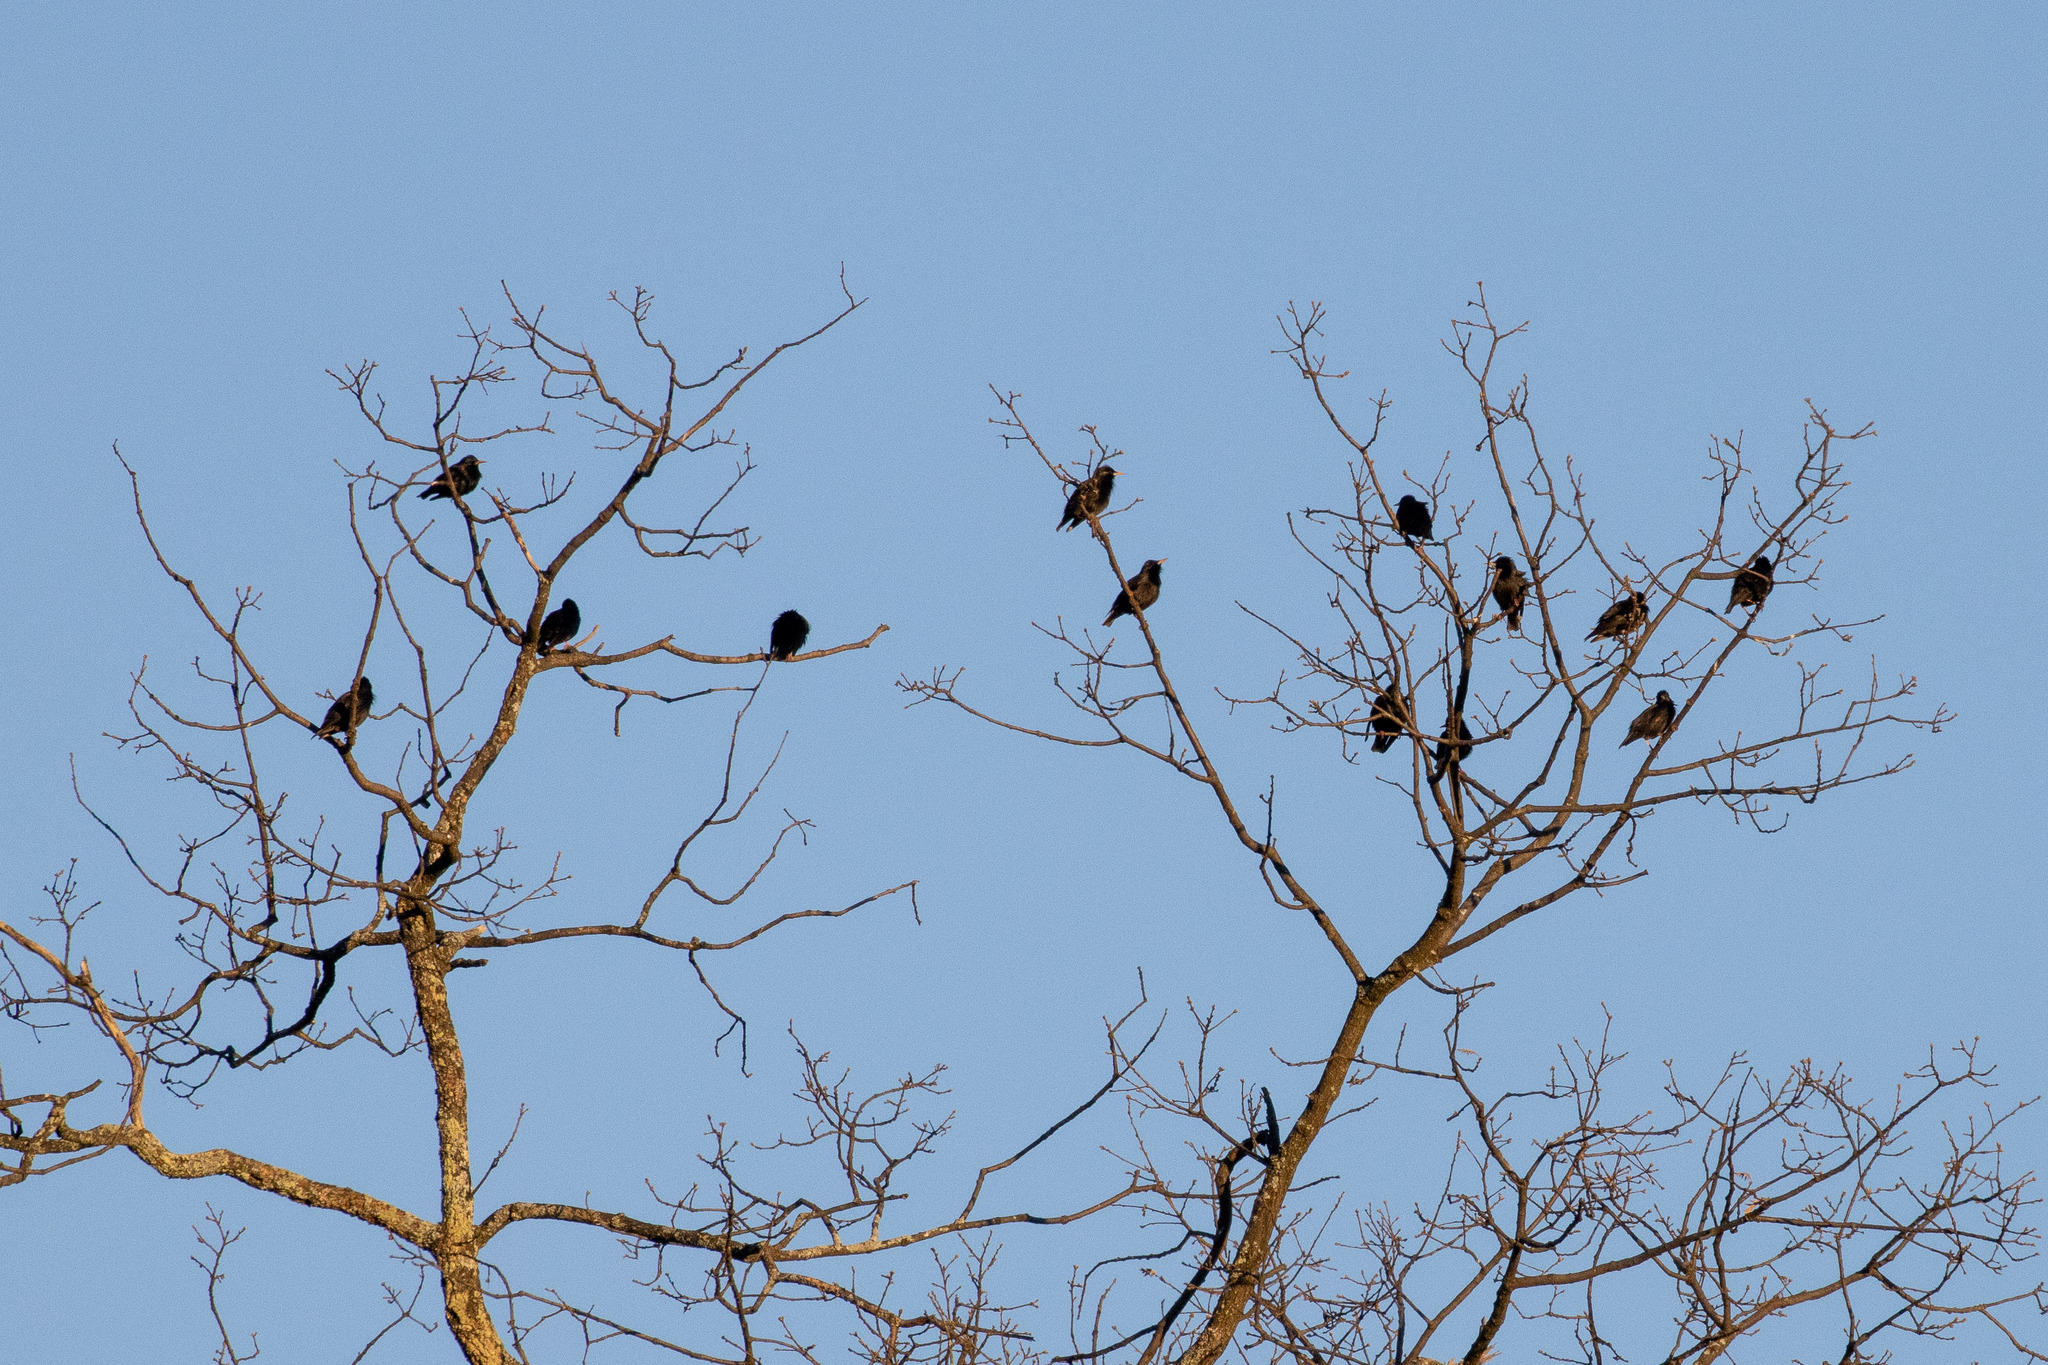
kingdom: Animalia
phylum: Chordata
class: Aves
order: Passeriformes
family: Sturnidae
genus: Sturnus
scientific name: Sturnus unicolor
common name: Spotless starling
